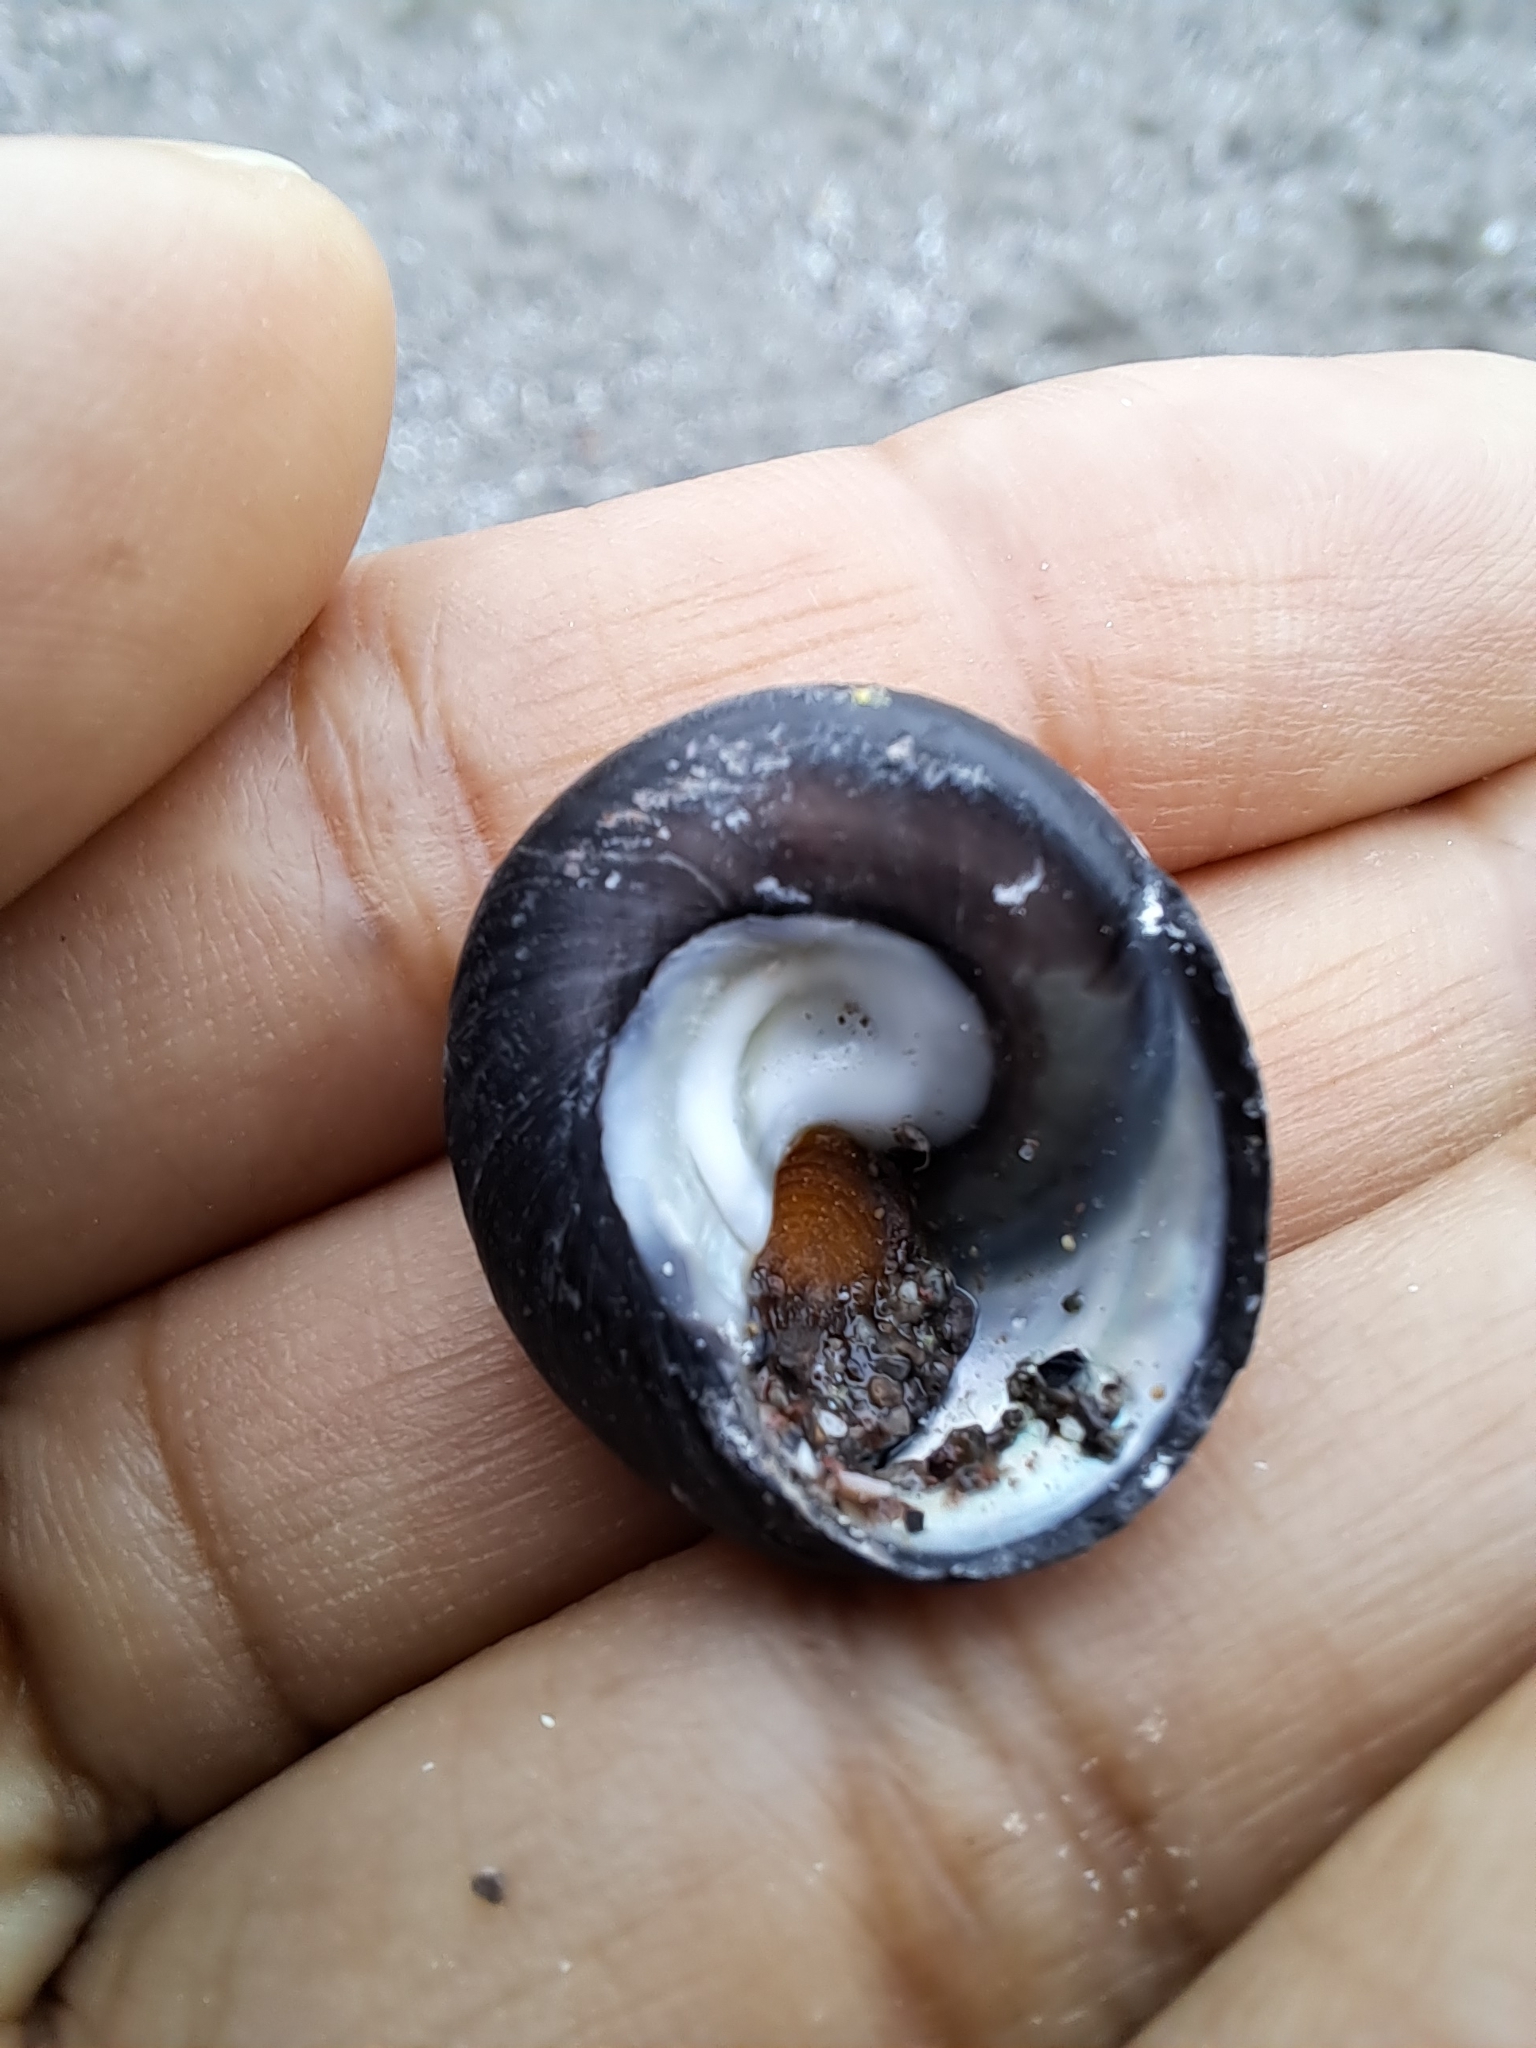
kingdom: Animalia
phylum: Mollusca
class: Gastropoda
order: Trochida
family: Tegulidae
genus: Tegula
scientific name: Tegula atra
